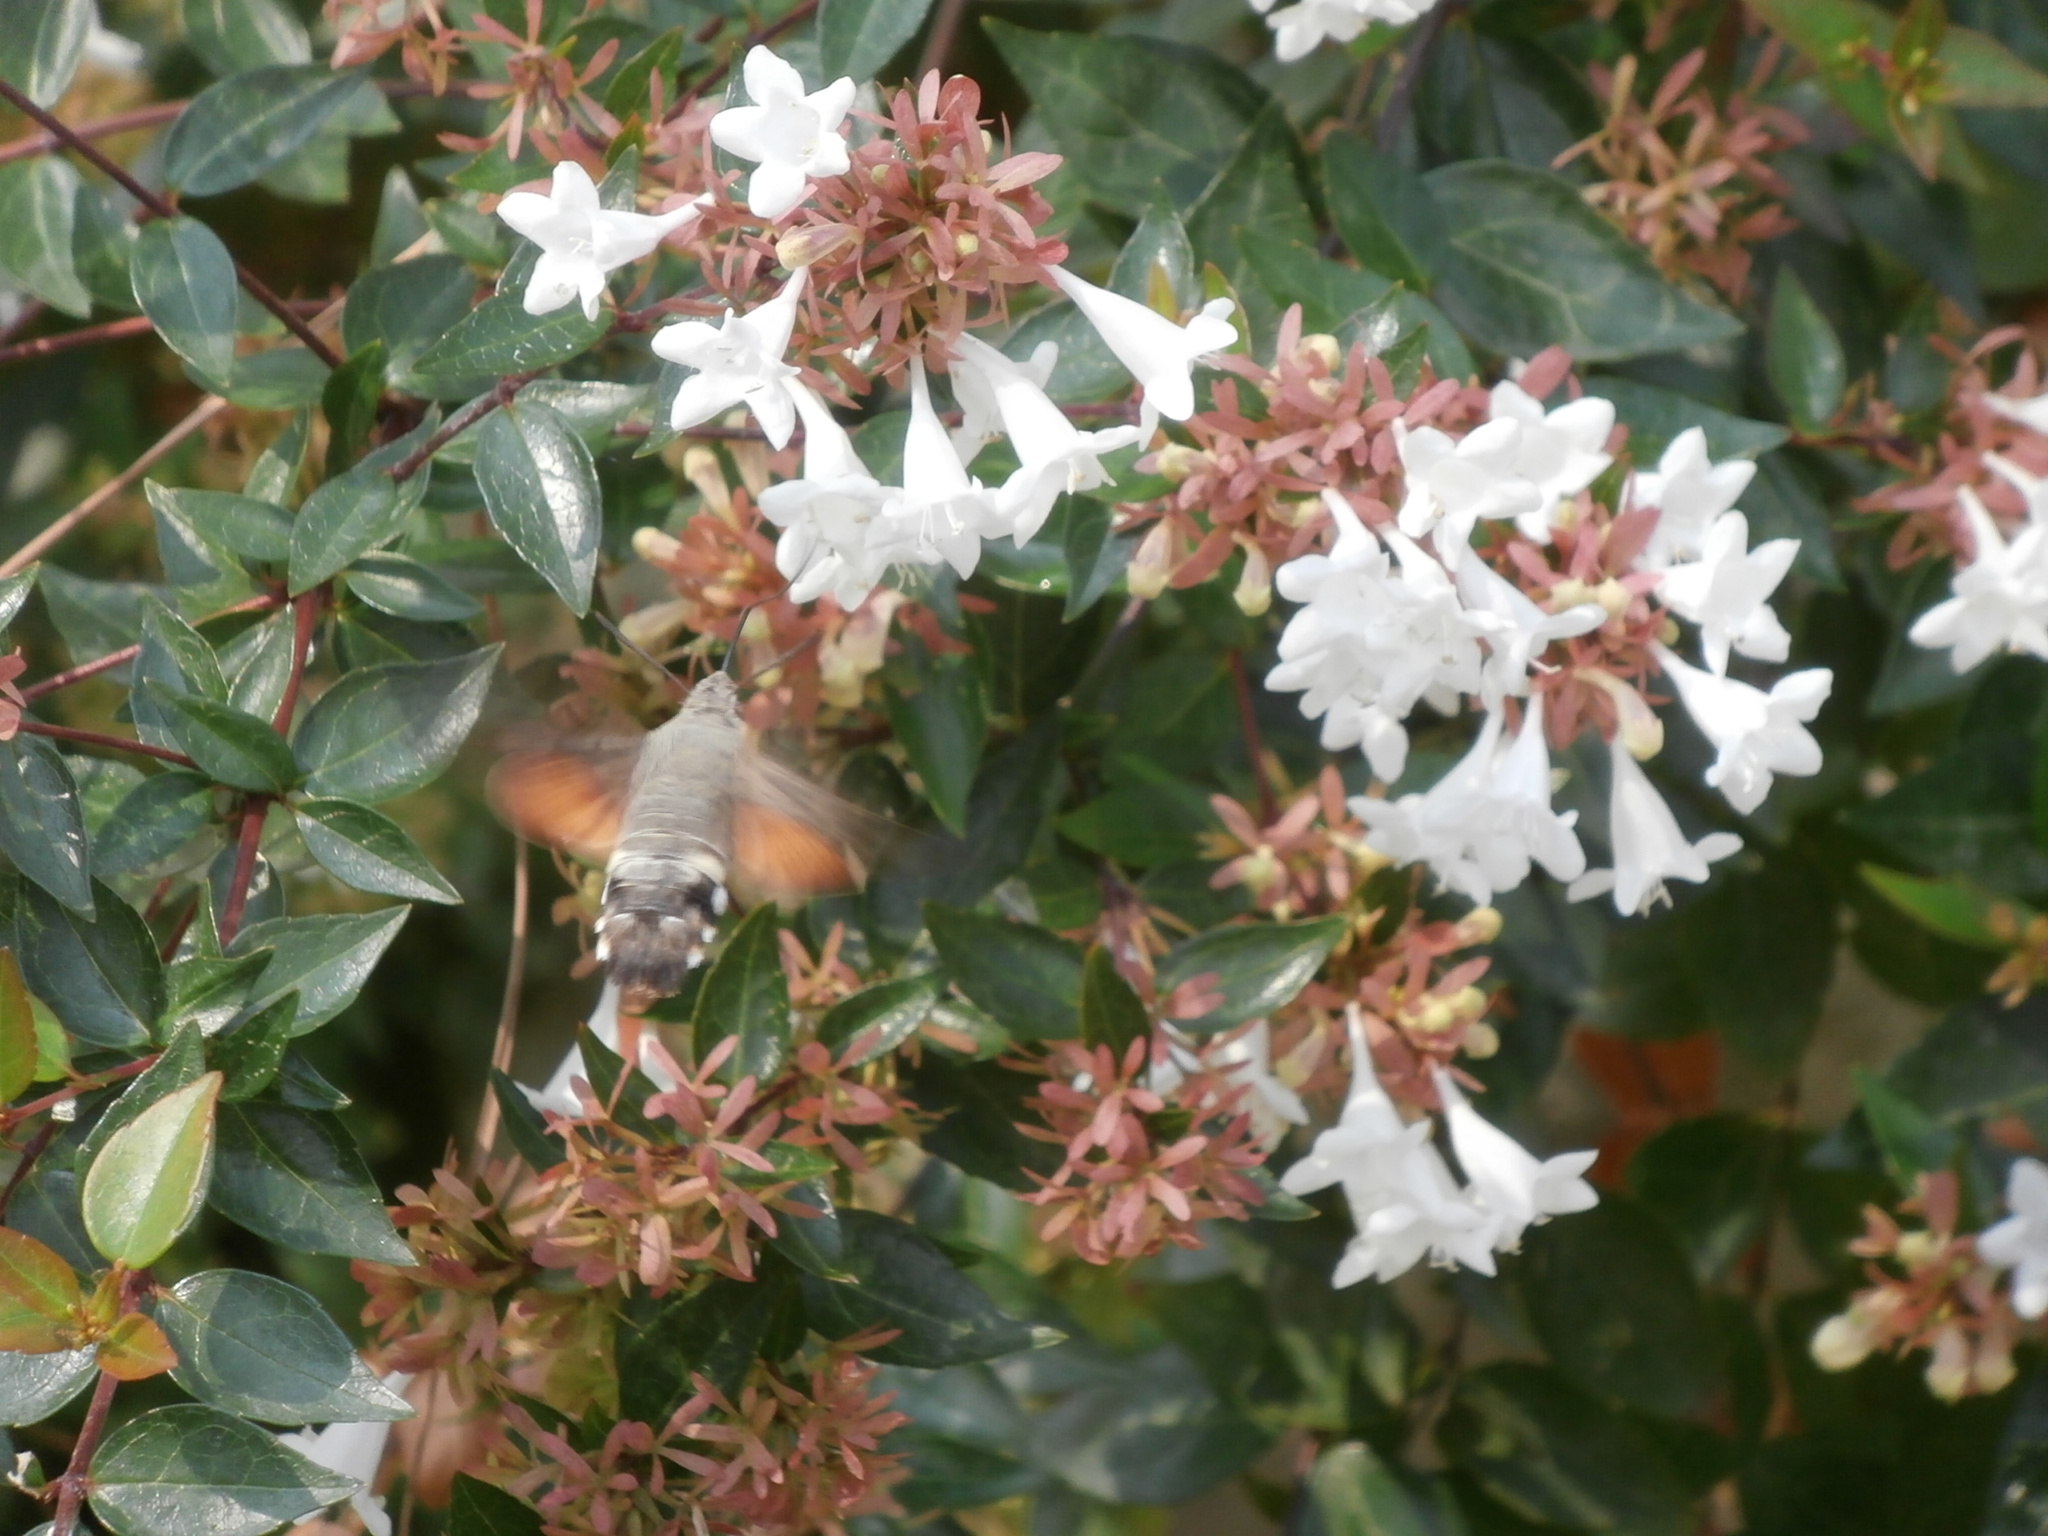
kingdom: Animalia
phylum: Arthropoda
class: Insecta
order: Lepidoptera
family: Sphingidae
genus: Macroglossum
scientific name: Macroglossum stellatarum
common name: Humming-bird hawk-moth
